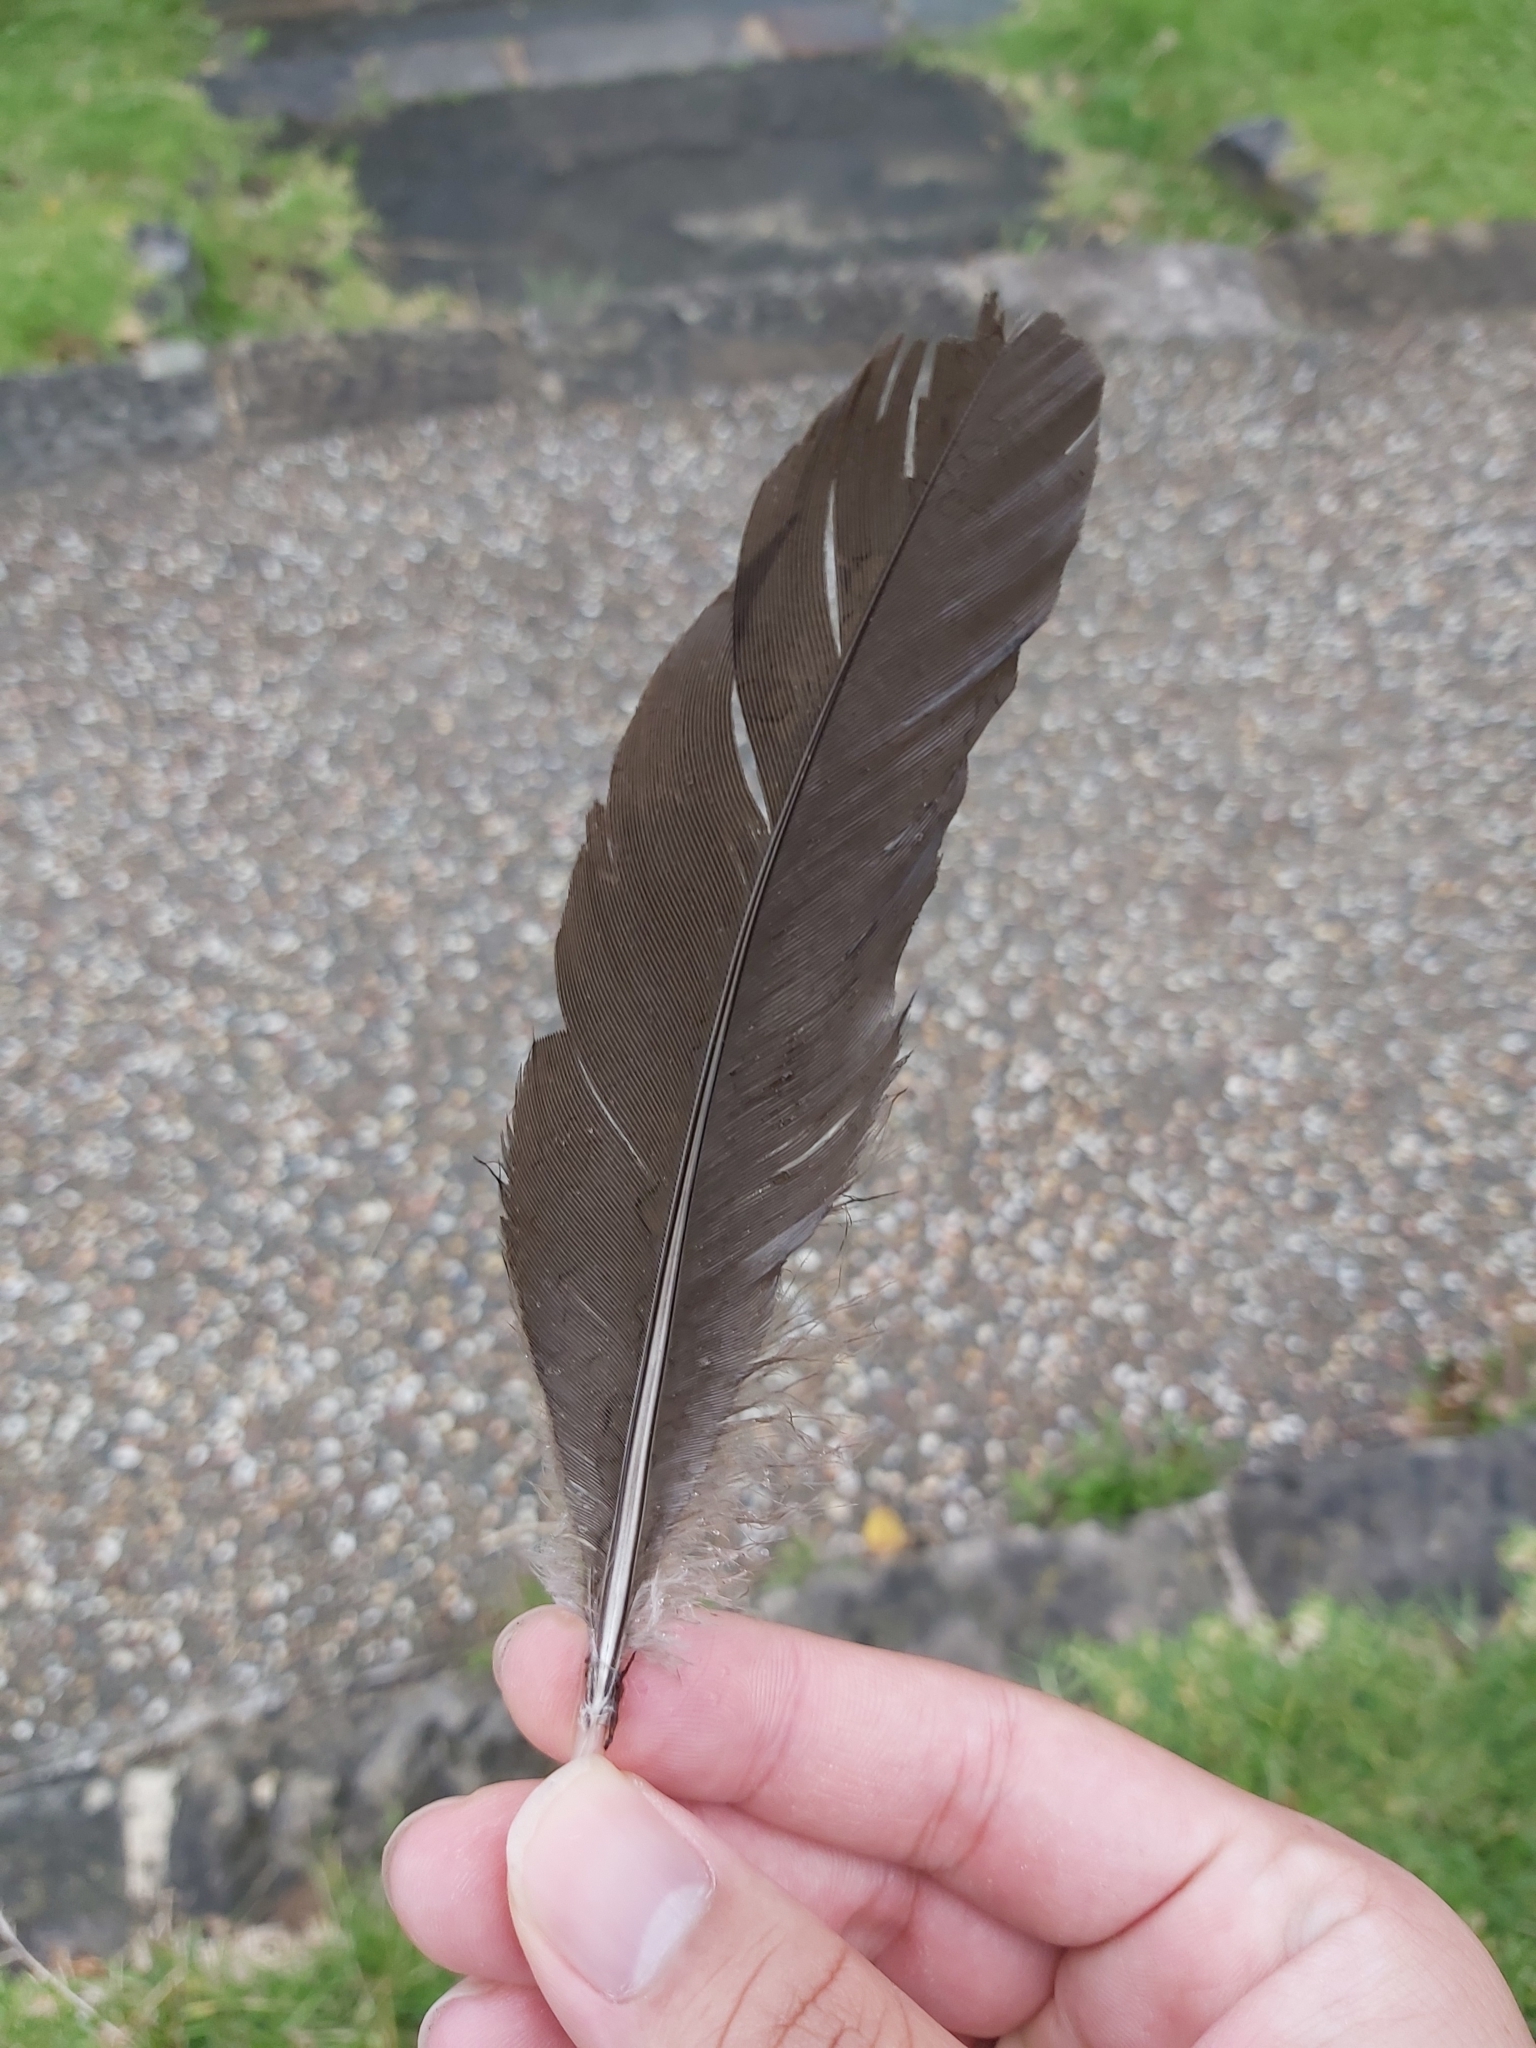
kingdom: Animalia
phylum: Chordata
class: Aves
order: Galliformes
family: Megapodiidae
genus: Alectura
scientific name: Alectura lathami
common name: Australian brushturkey
